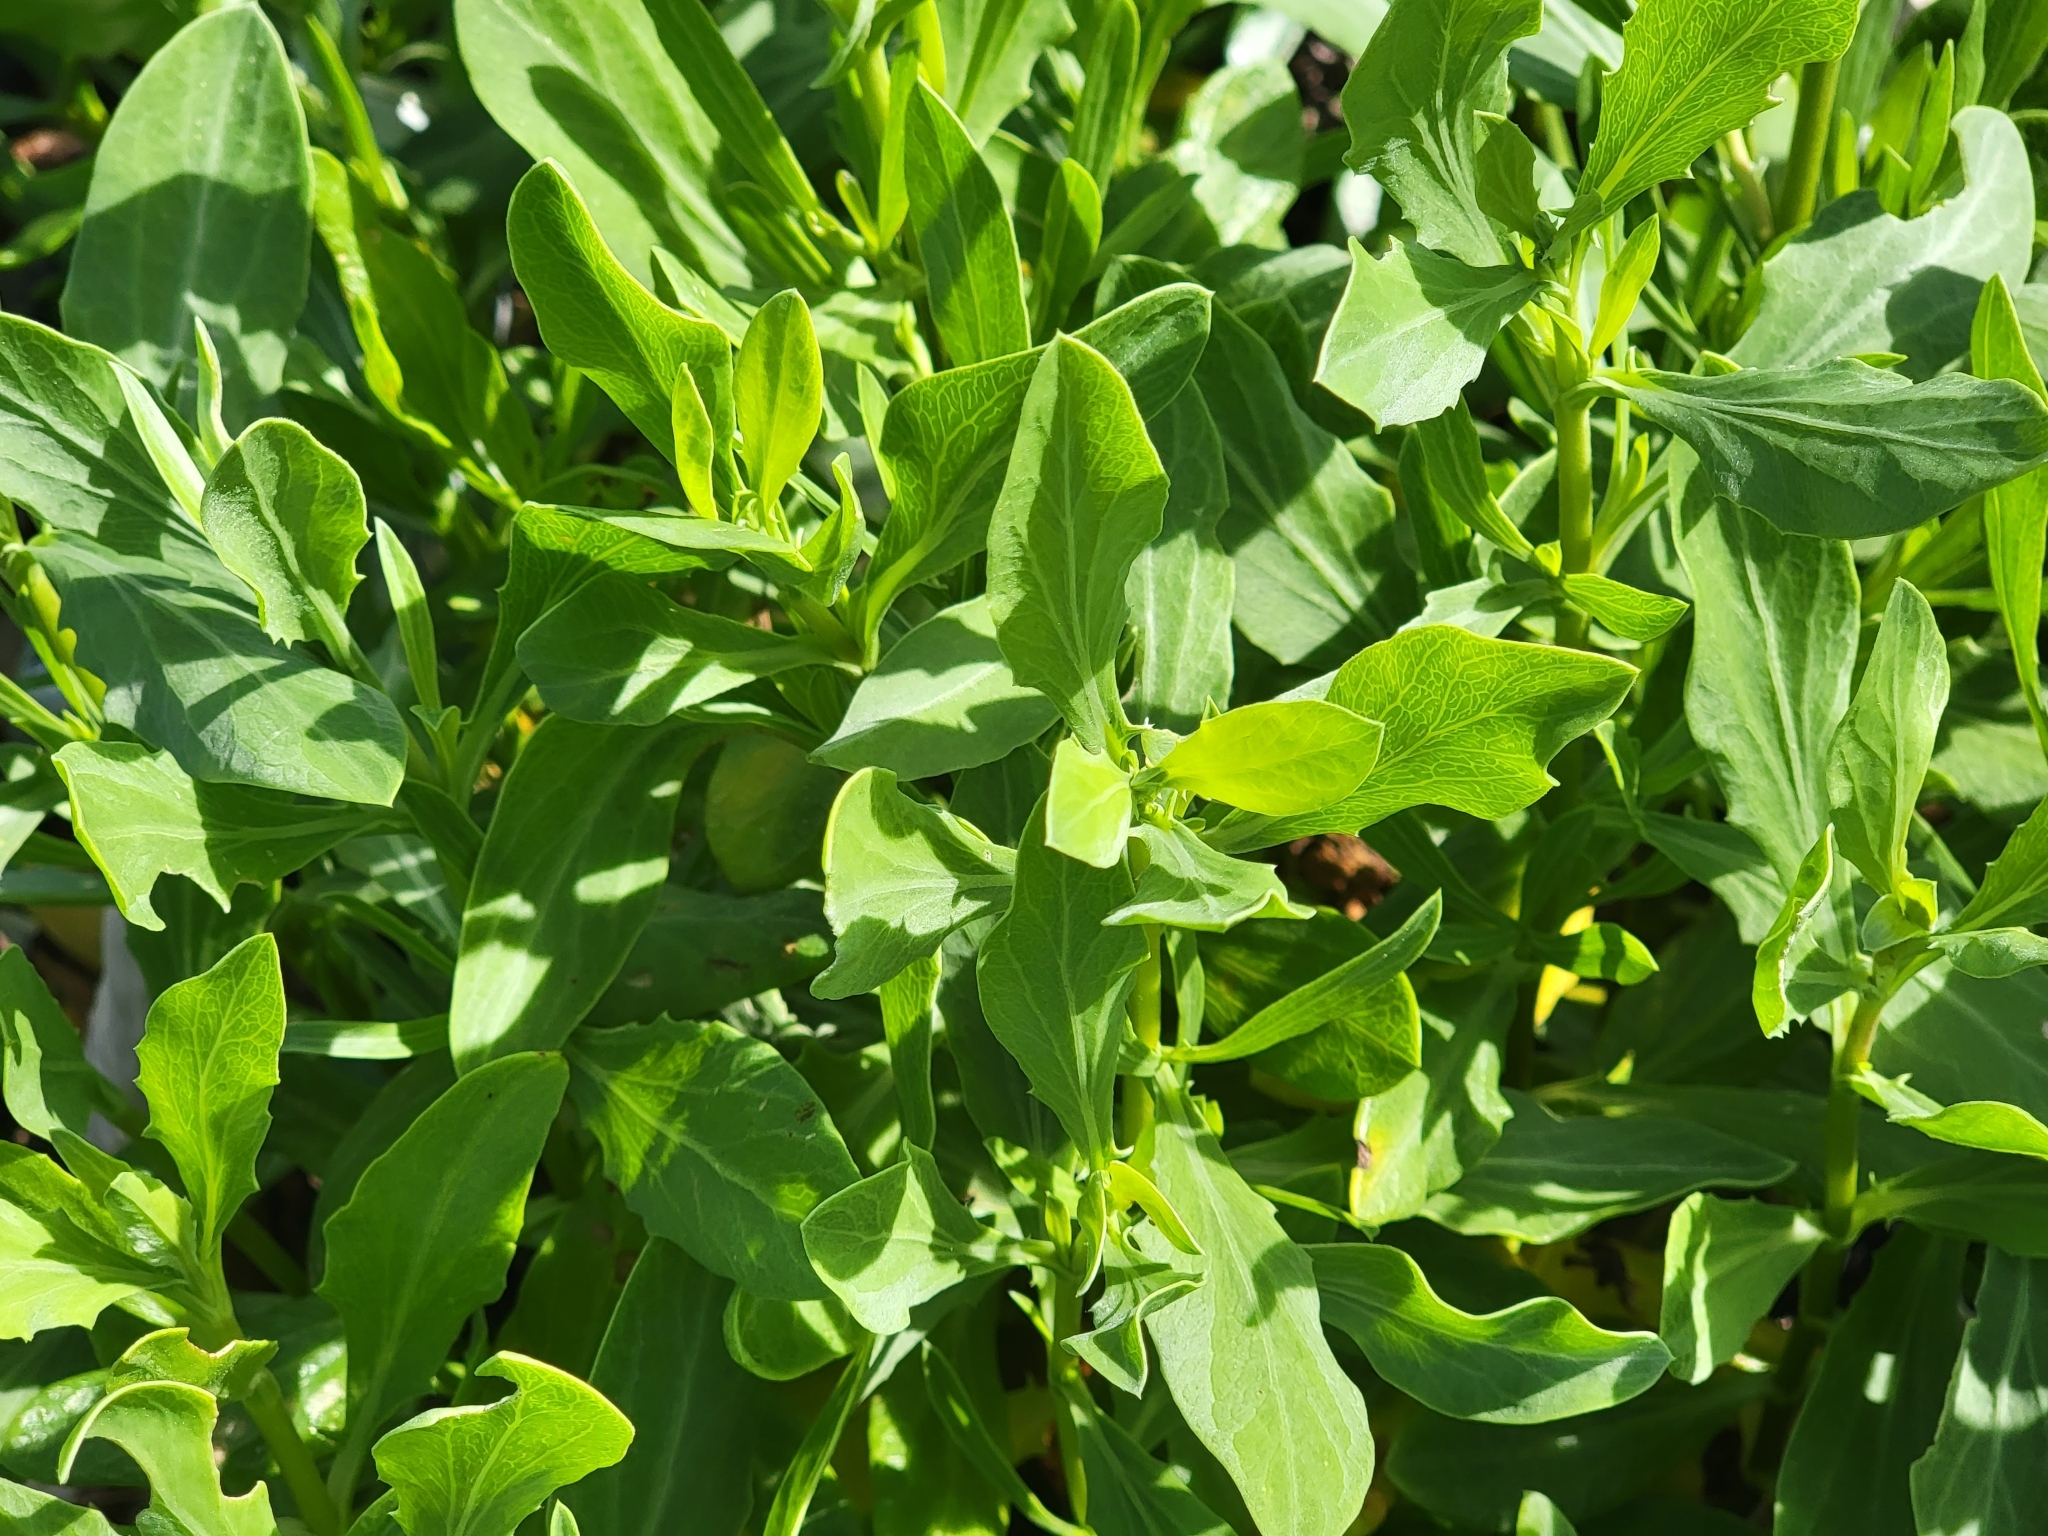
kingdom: Plantae
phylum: Tracheophyta
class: Magnoliopsida
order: Asterales
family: Asteraceae
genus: Borrichia
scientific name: Borrichia frutescens
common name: Sea oxeye
